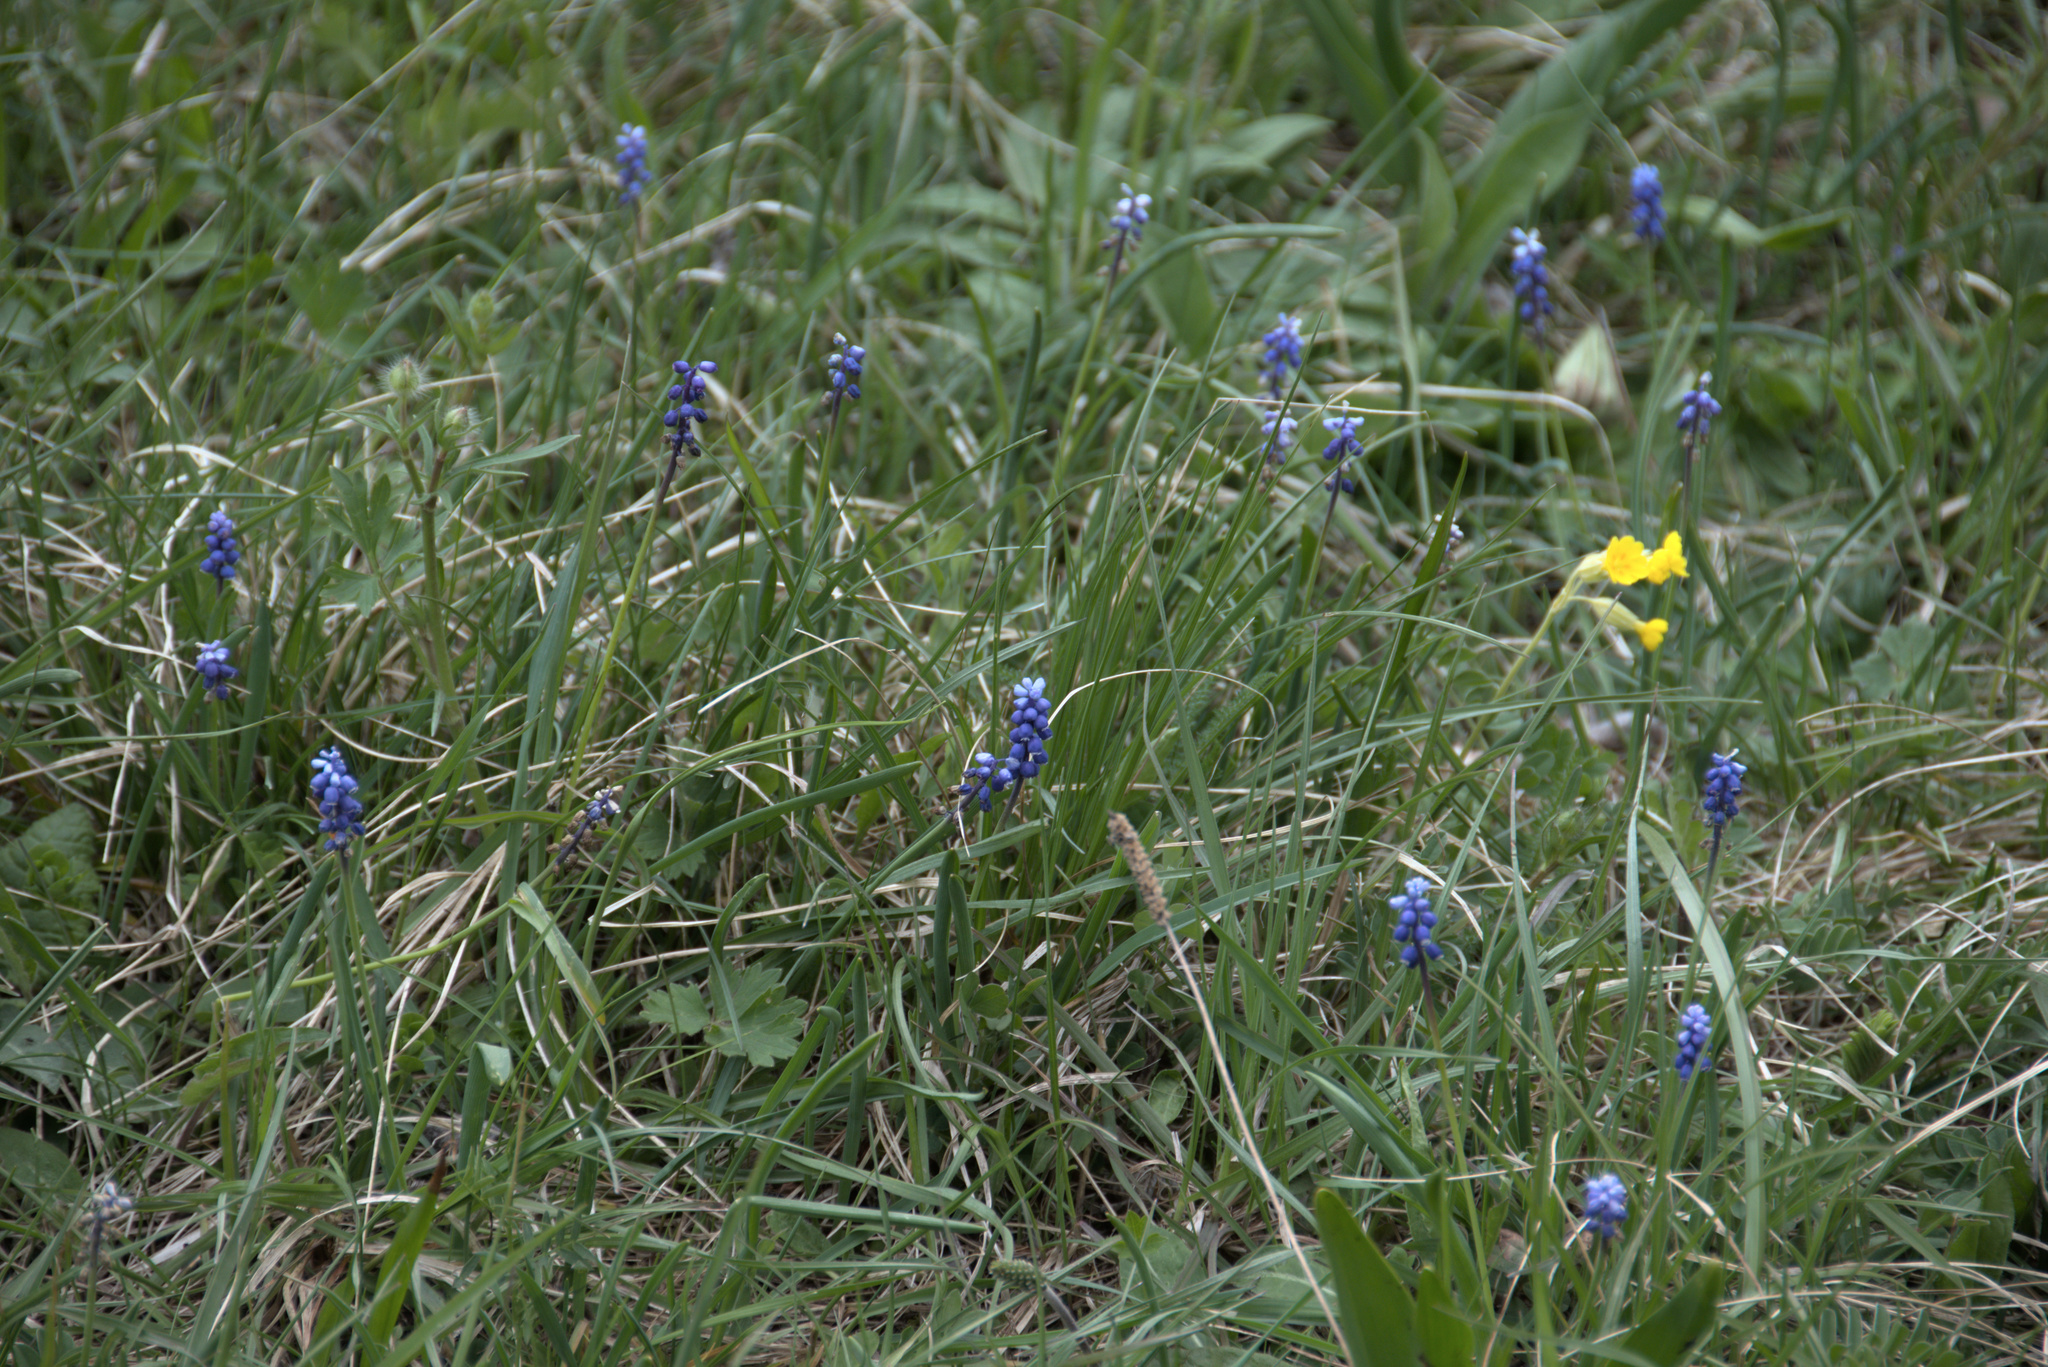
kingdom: Plantae
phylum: Tracheophyta
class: Liliopsida
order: Asparagales
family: Asparagaceae
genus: Muscari
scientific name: Muscari botryoides
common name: Compact grape-hyacinth
